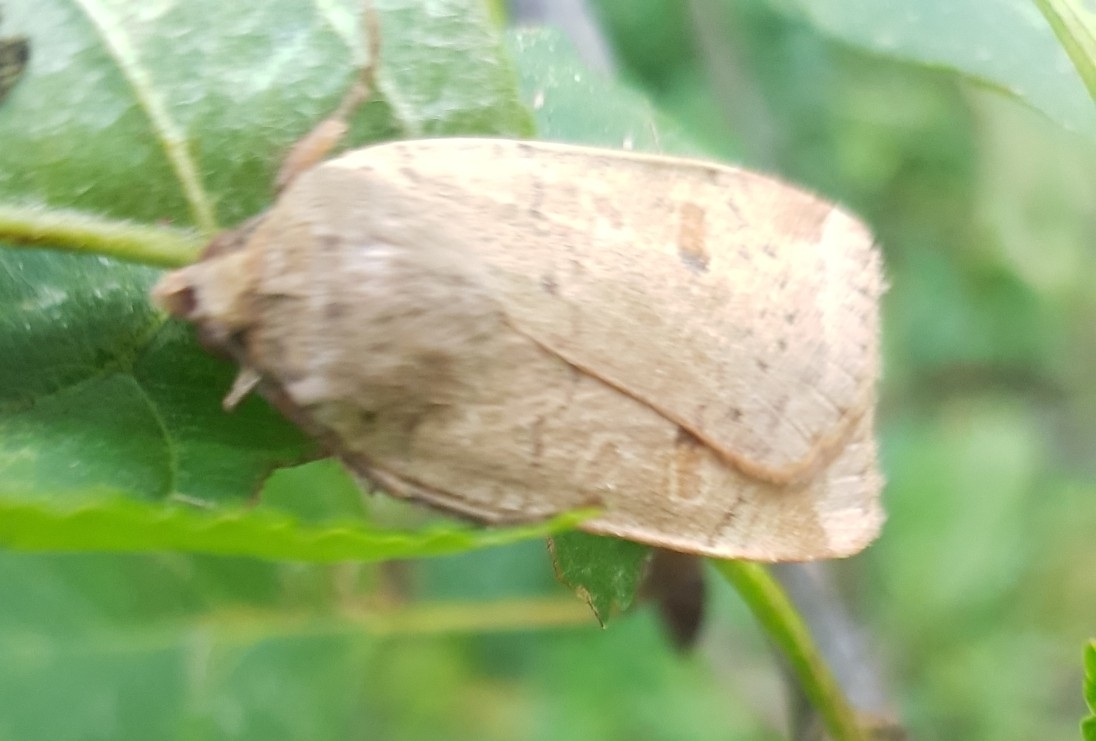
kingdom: Animalia
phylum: Arthropoda
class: Insecta
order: Lepidoptera
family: Noctuidae
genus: Noctua
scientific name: Noctua comes
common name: Lesser yellow underwing
